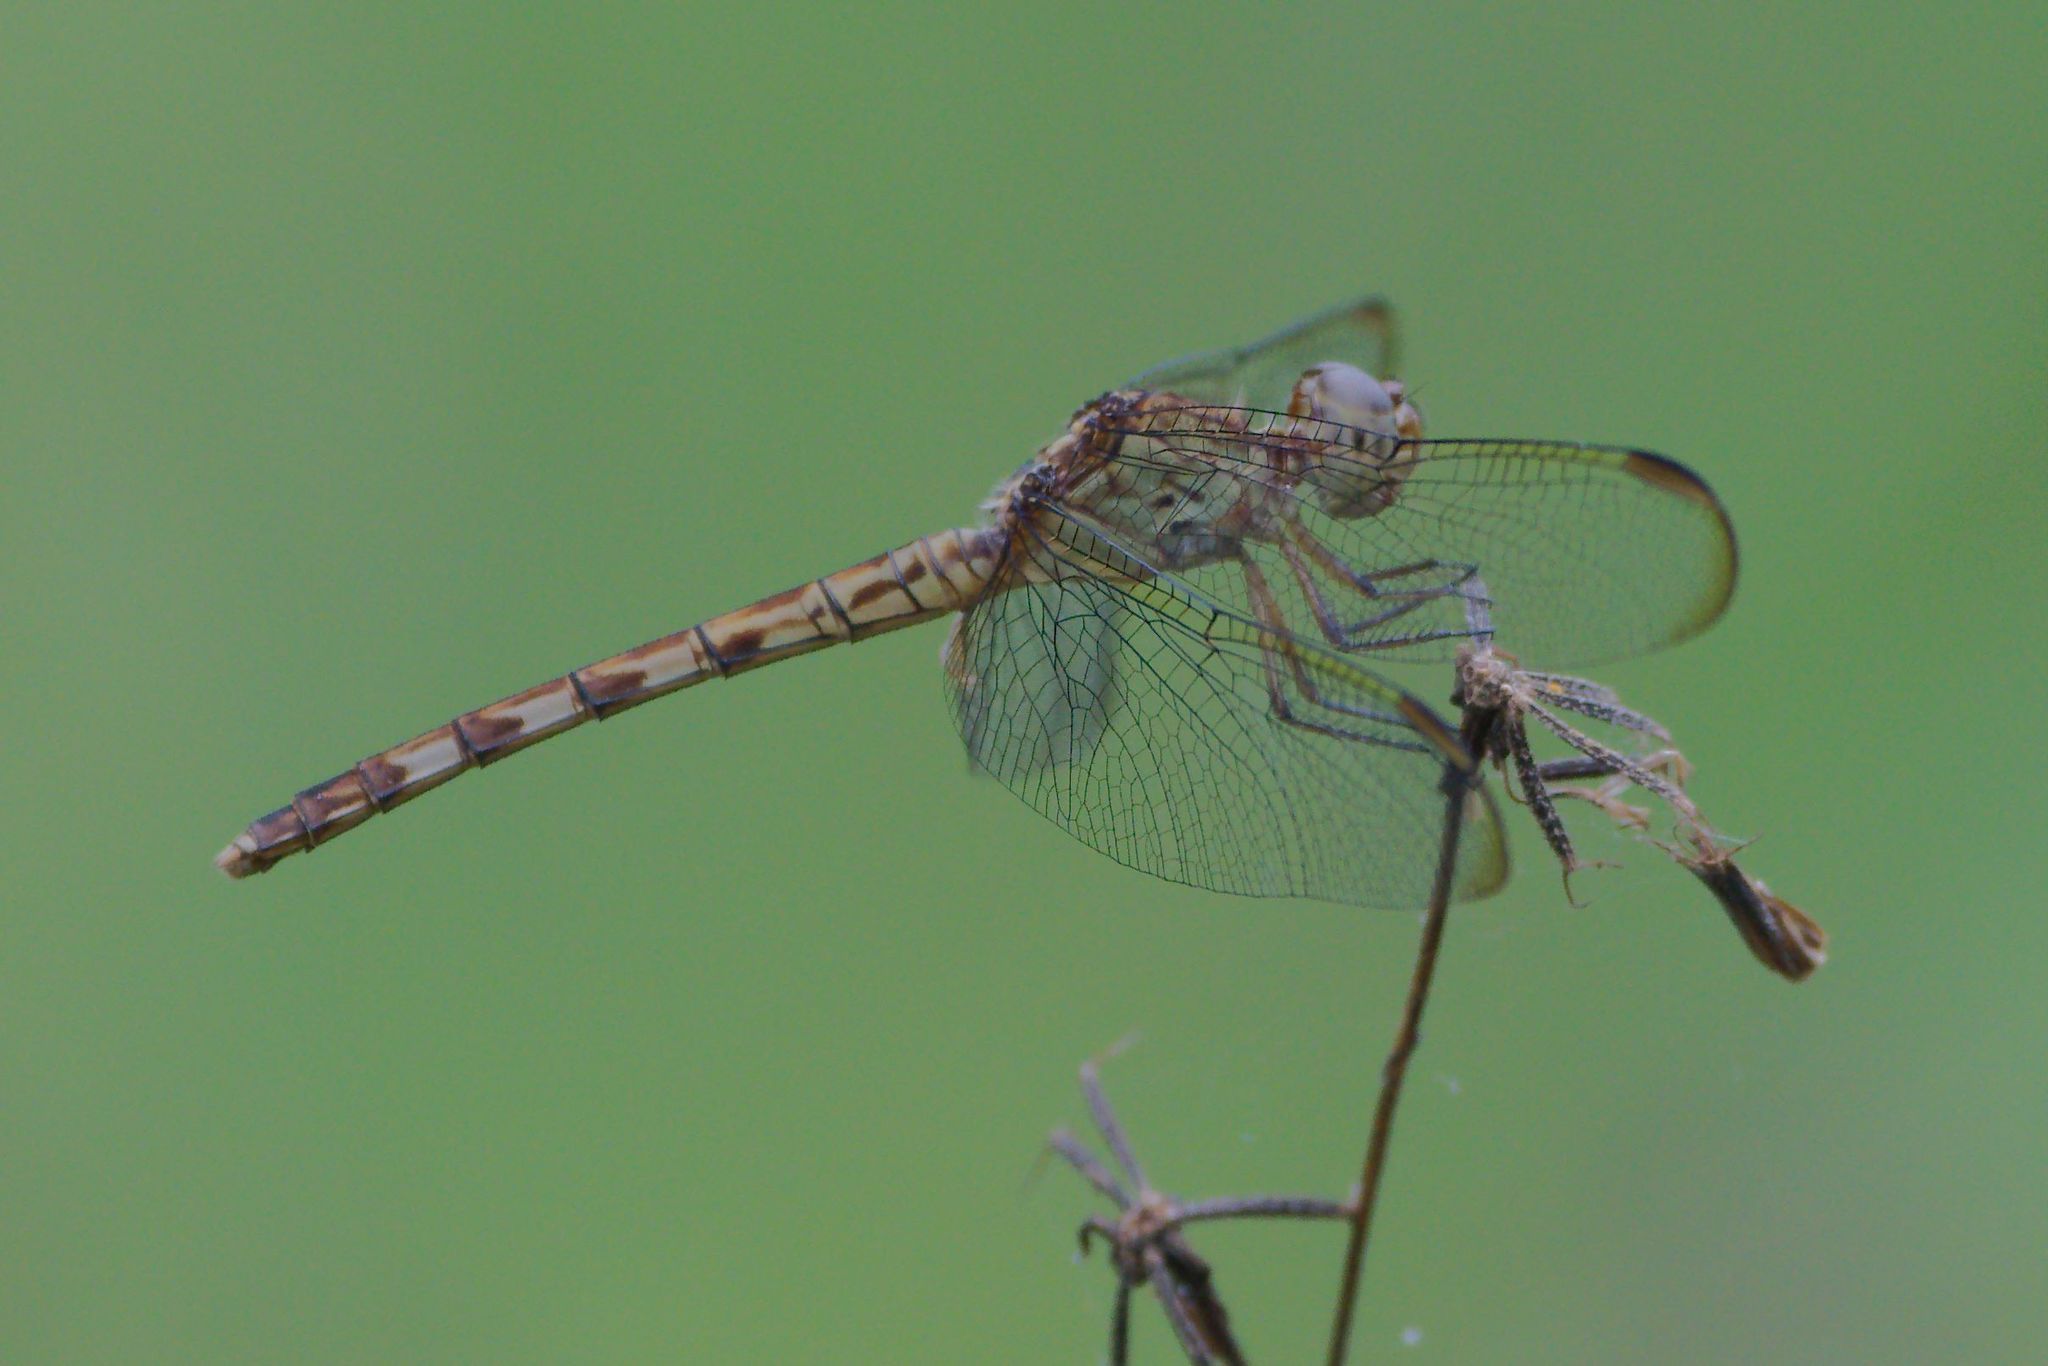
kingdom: Animalia
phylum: Arthropoda
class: Insecta
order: Odonata
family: Libellulidae
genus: Erythrodiplax
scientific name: Erythrodiplax umbrata
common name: Band-winged dragonlet
